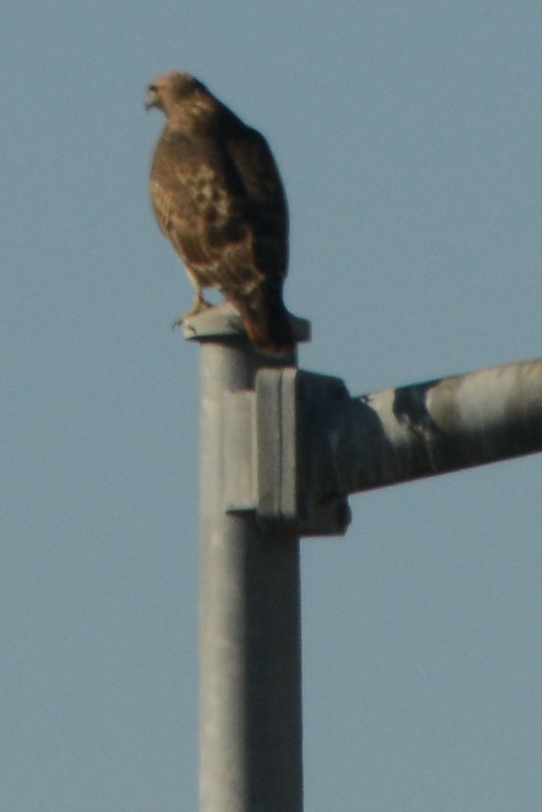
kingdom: Animalia
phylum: Chordata
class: Aves
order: Accipitriformes
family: Accipitridae
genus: Buteo
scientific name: Buteo jamaicensis
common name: Red-tailed hawk
